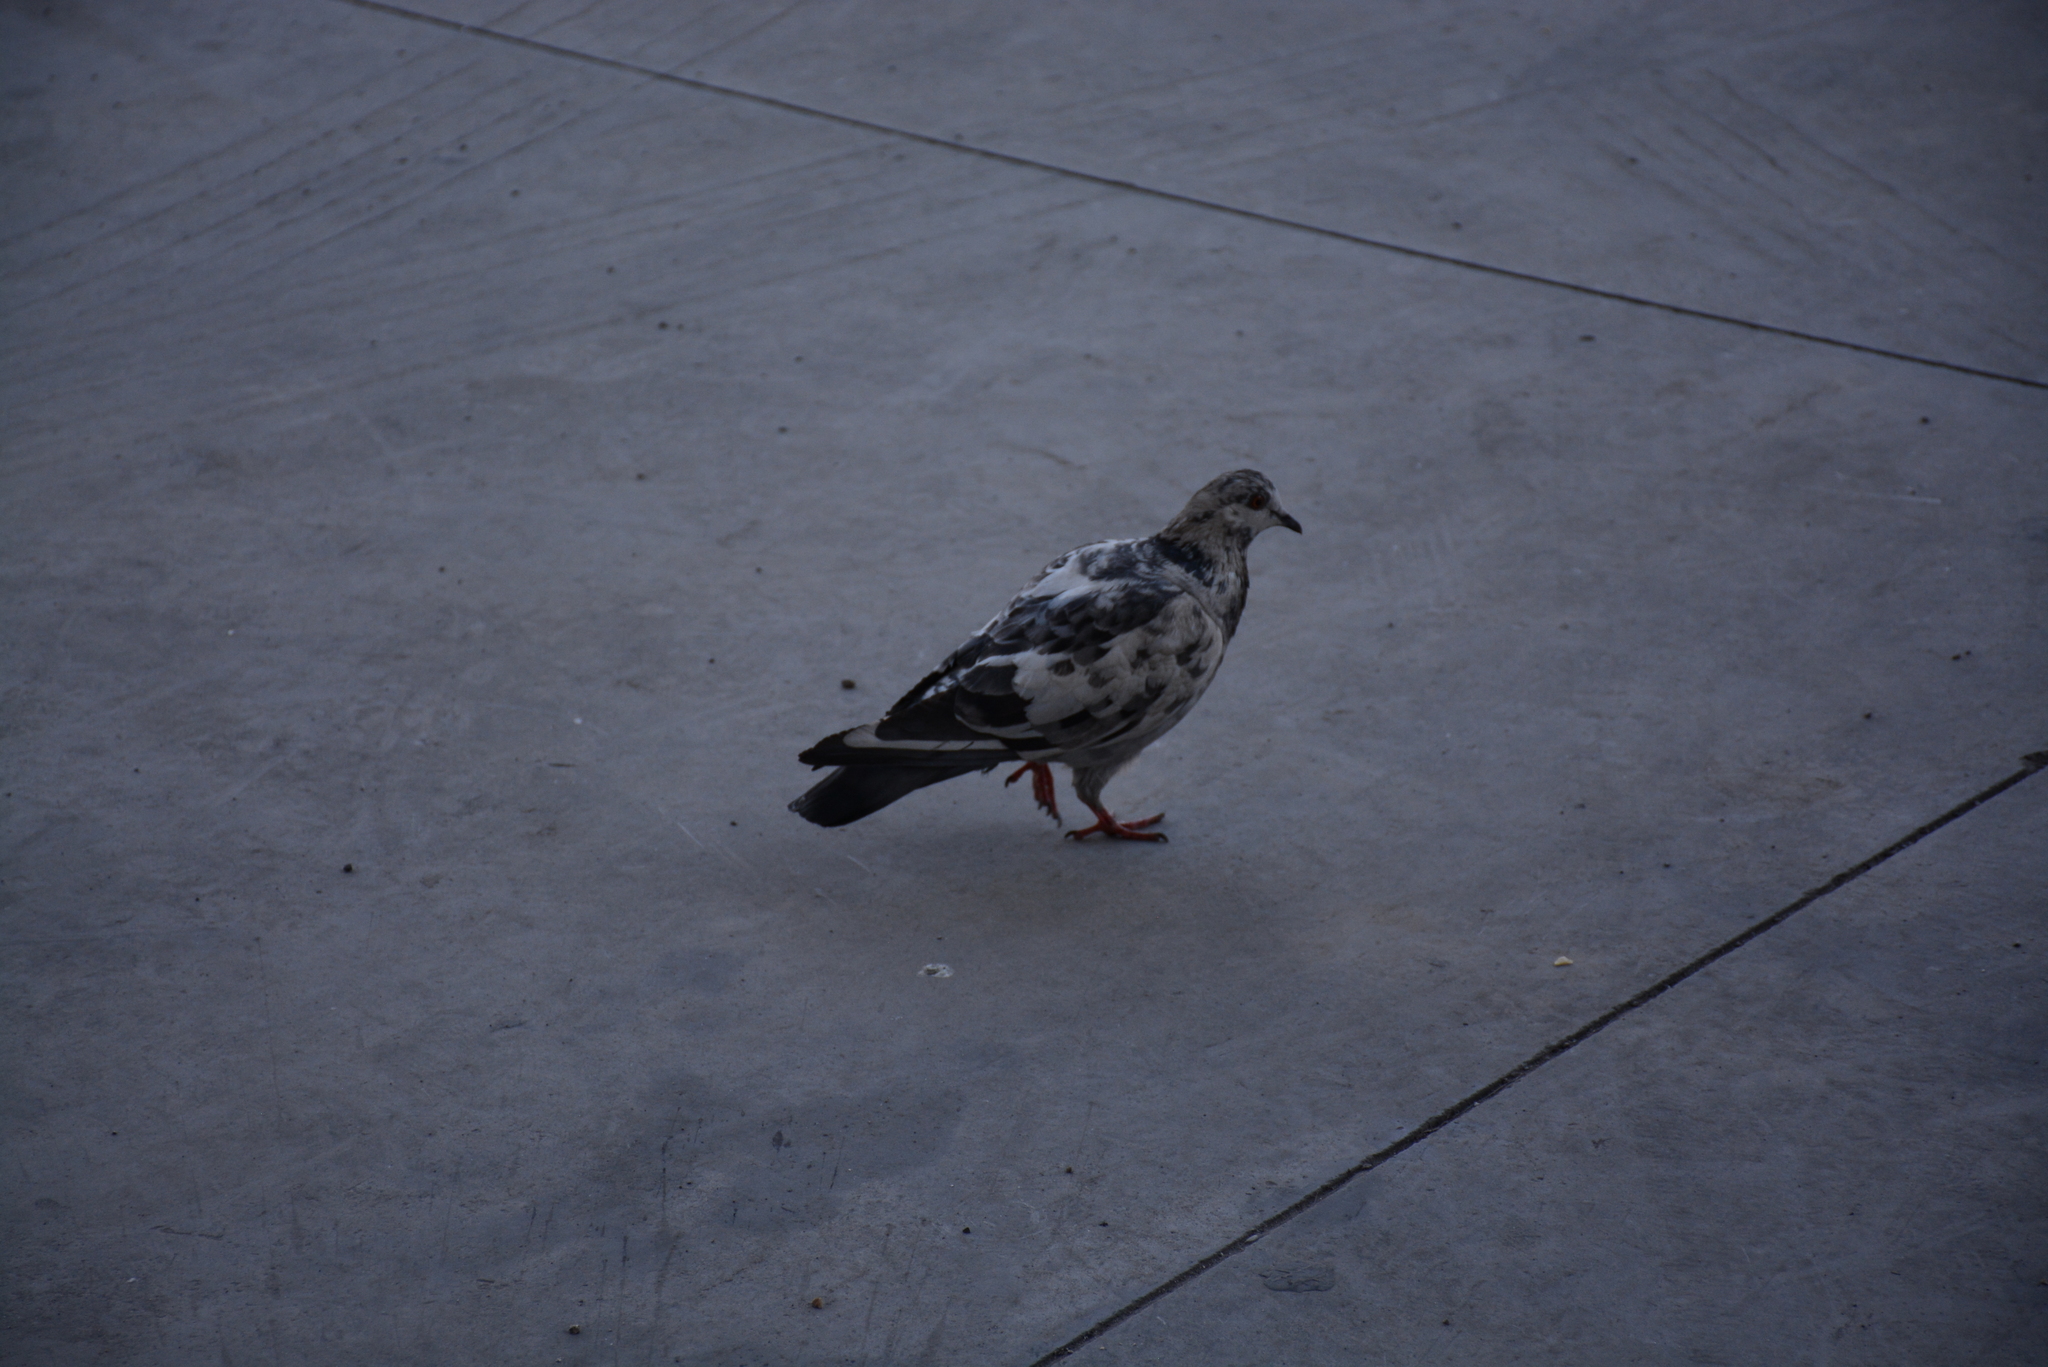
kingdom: Animalia
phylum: Chordata
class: Aves
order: Columbiformes
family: Columbidae
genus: Columba
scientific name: Columba livia
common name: Rock pigeon
